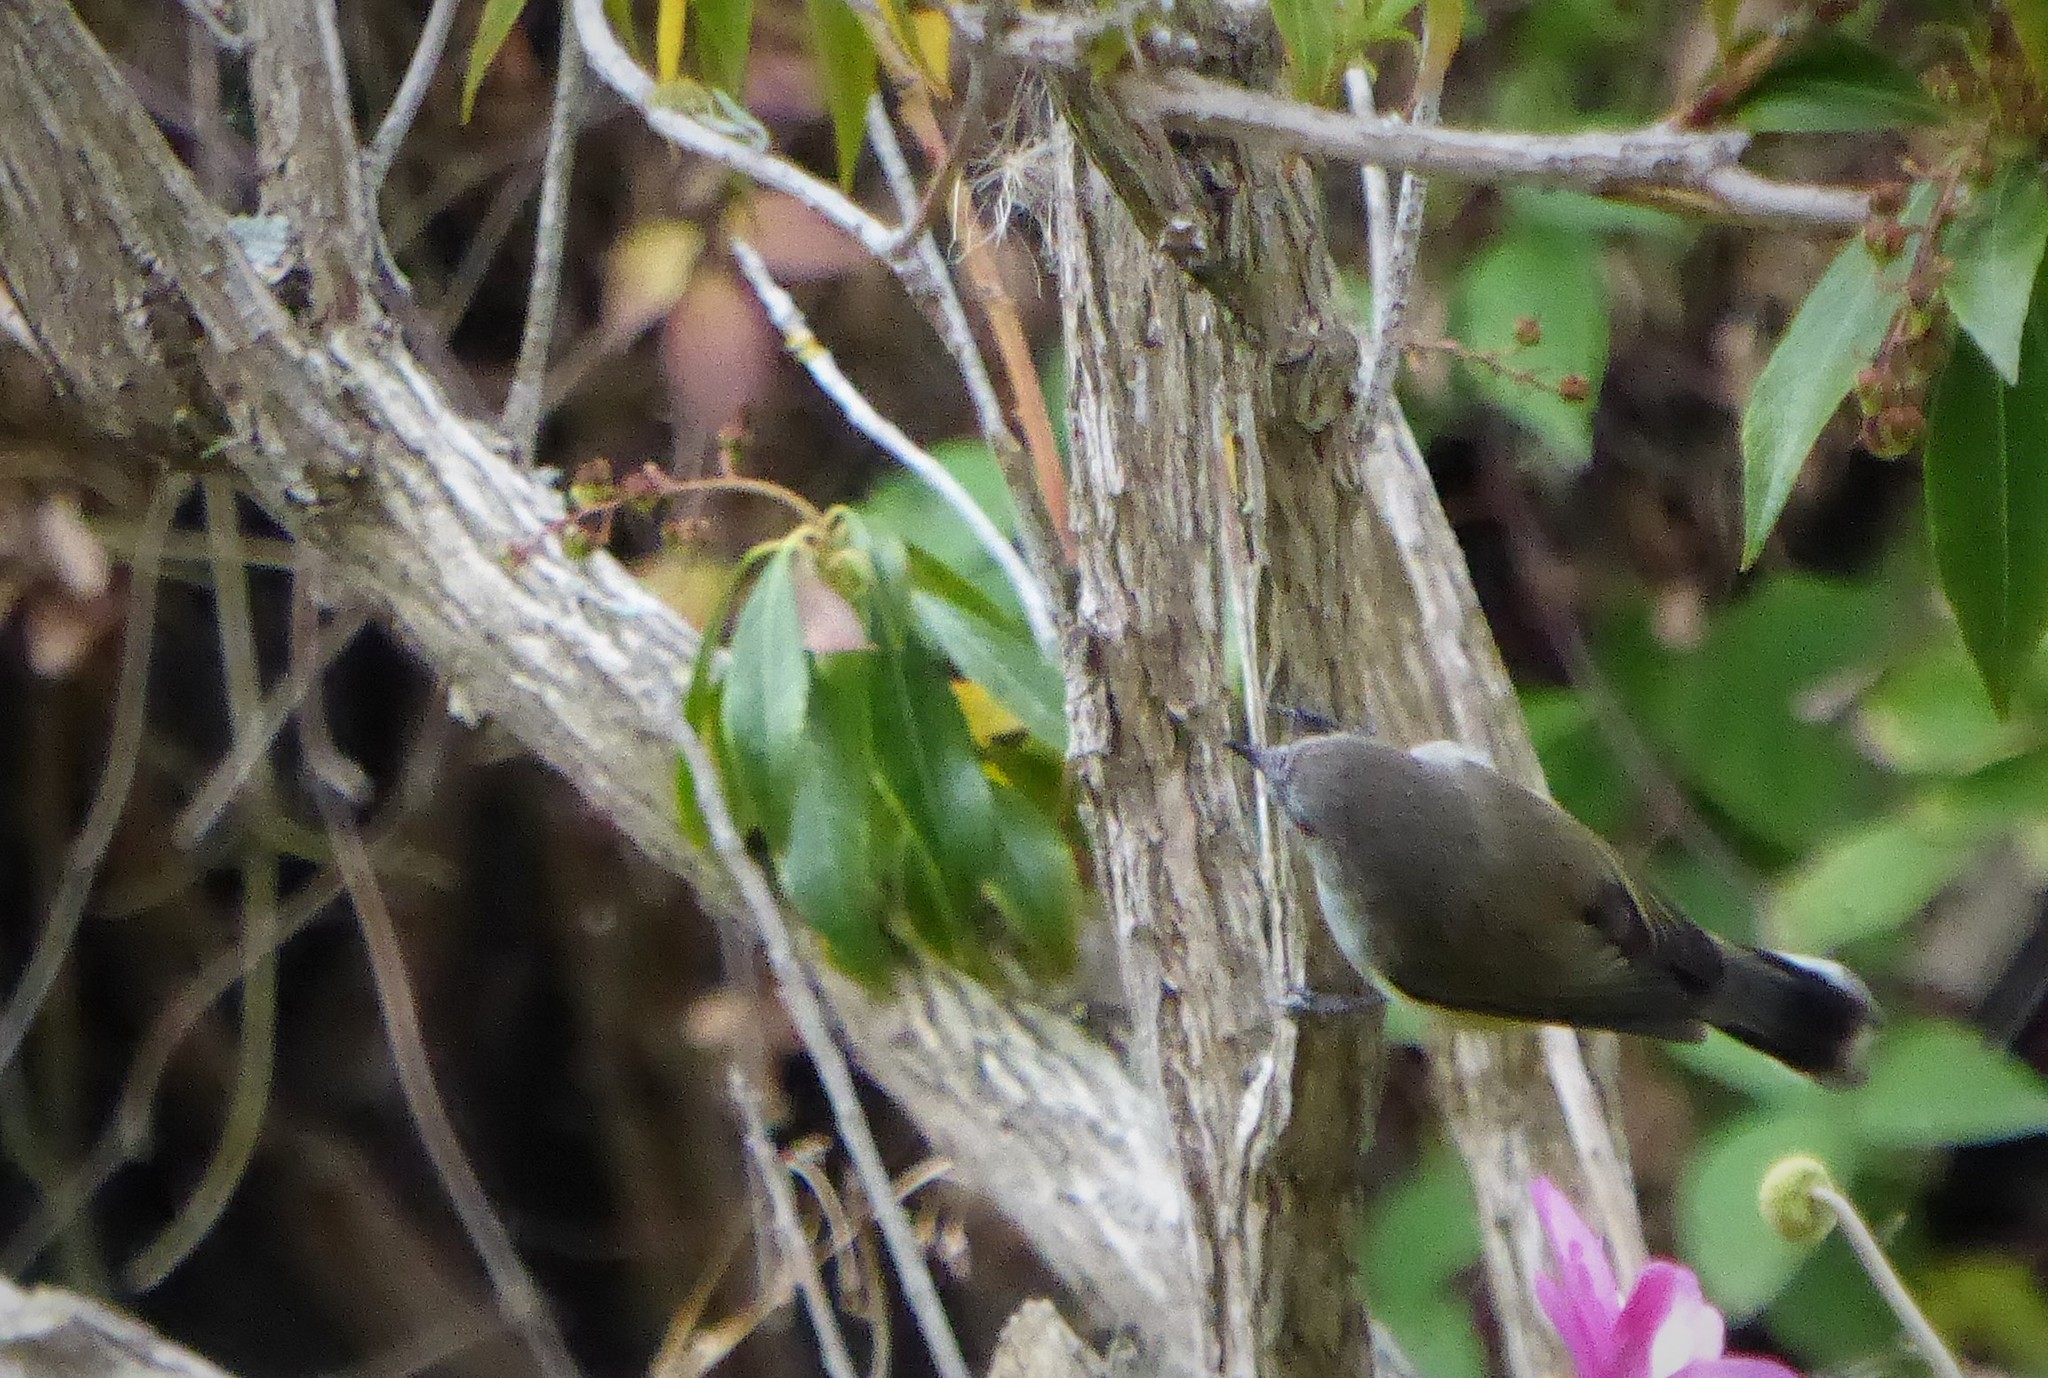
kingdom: Animalia
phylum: Chordata
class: Aves
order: Passeriformes
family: Acanthizidae
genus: Gerygone
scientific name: Gerygone igata
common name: Grey gerygone
